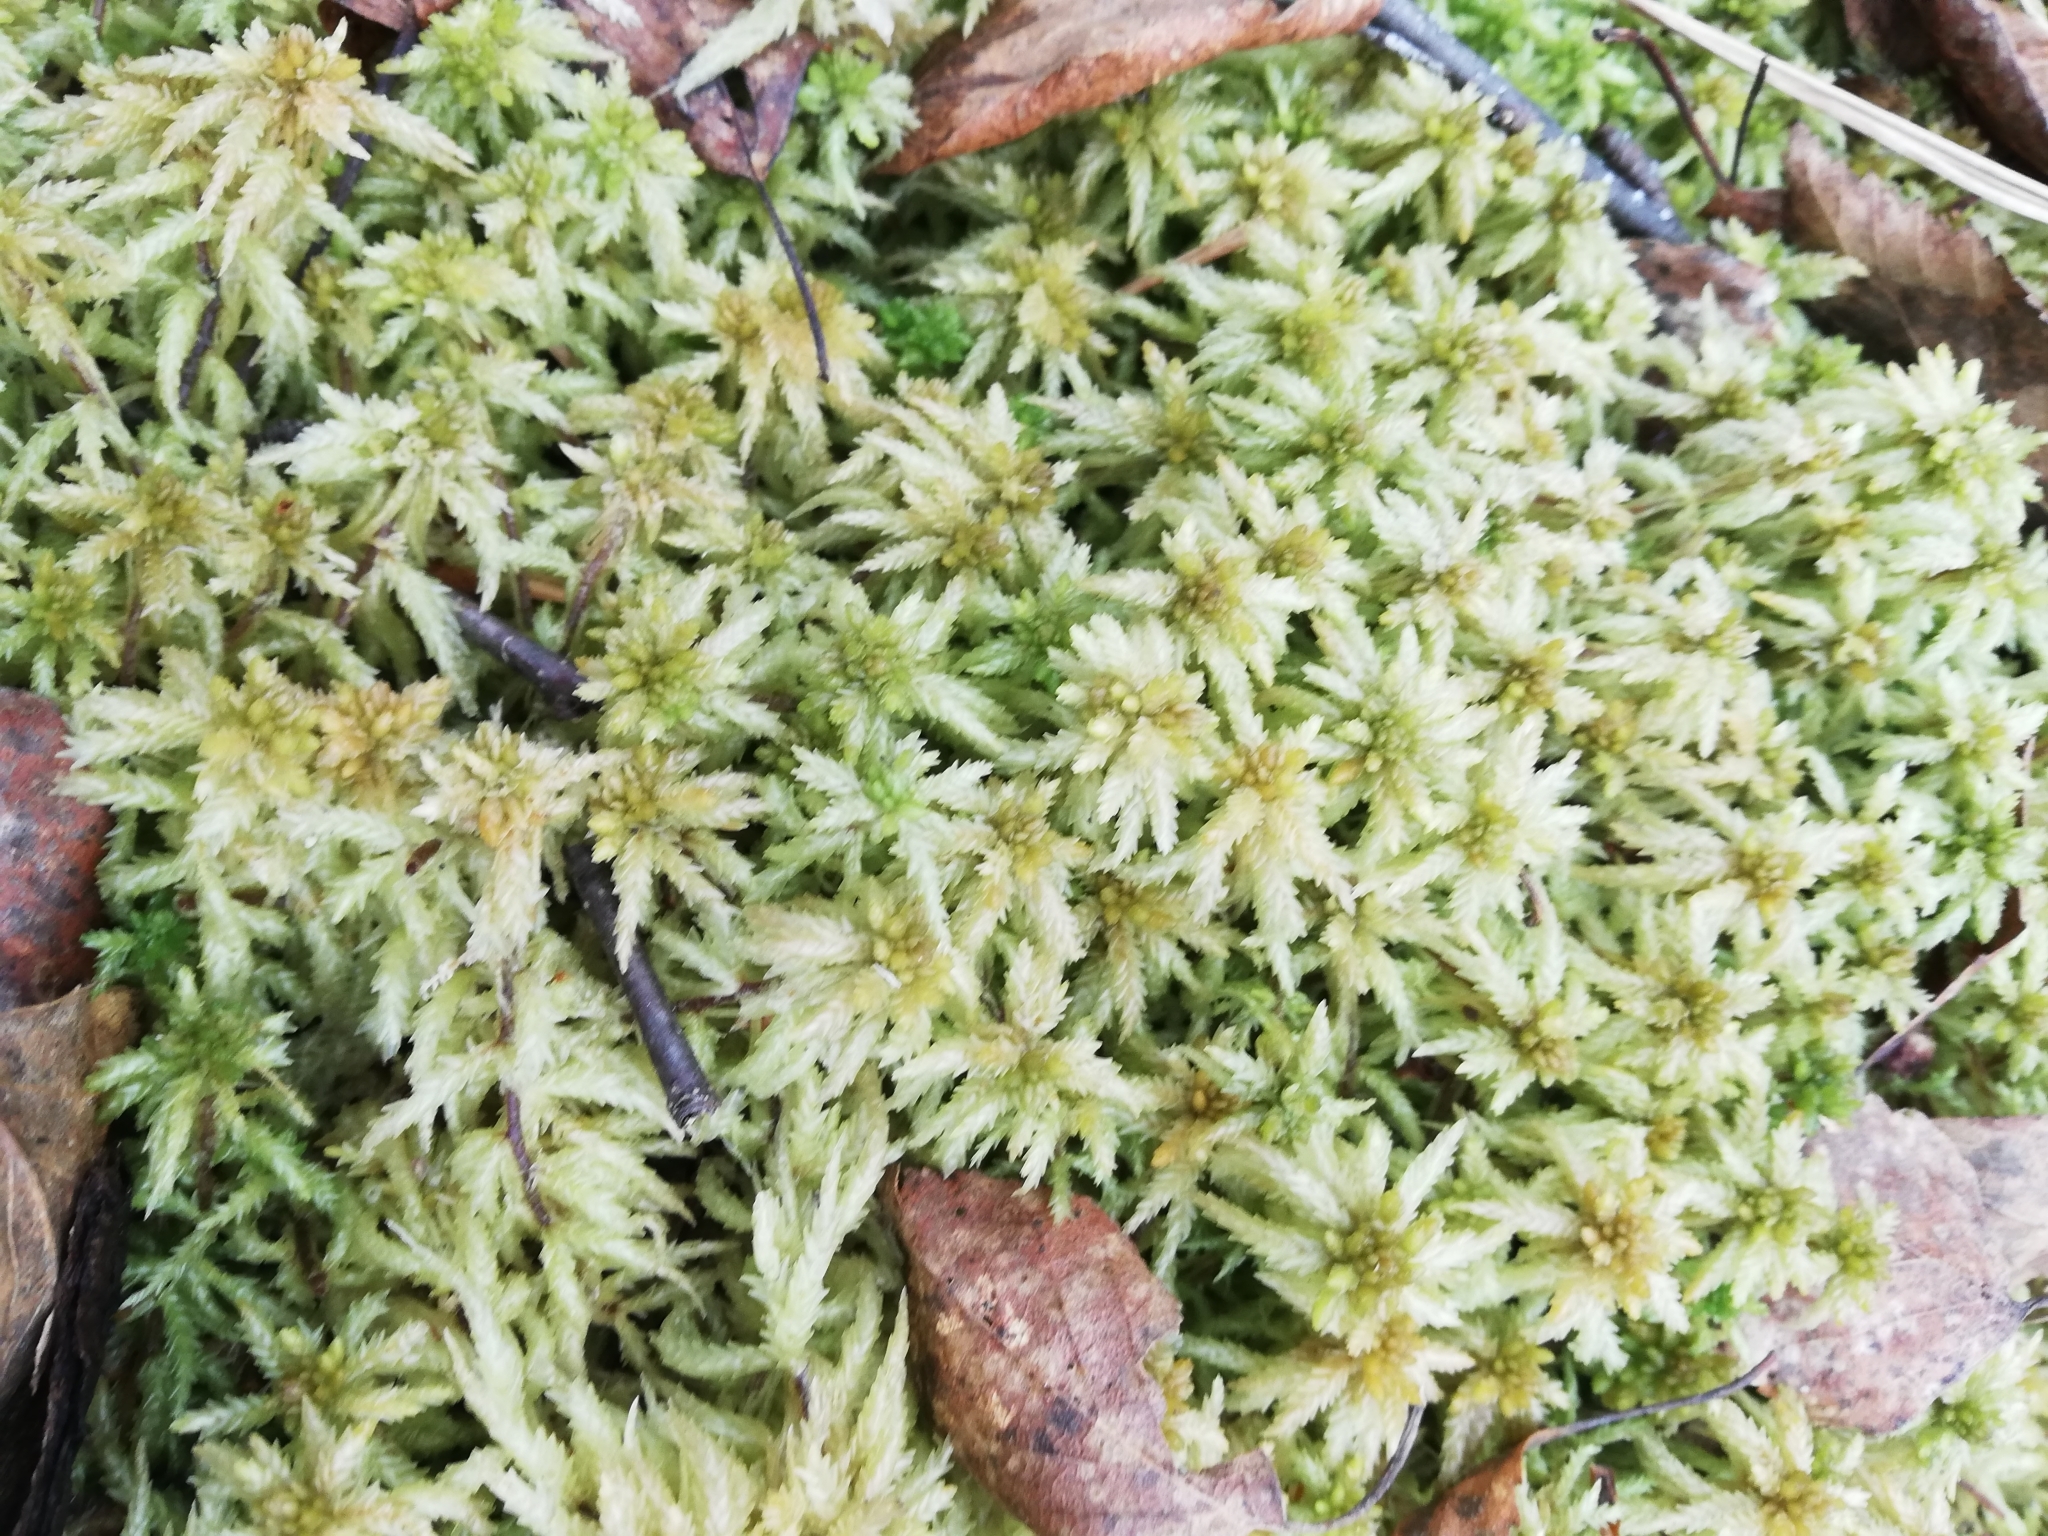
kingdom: Plantae
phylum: Bryophyta
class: Sphagnopsida
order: Sphagnales
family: Sphagnaceae
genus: Sphagnum
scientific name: Sphagnum palustre
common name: Blunt-leaved bog-moss
